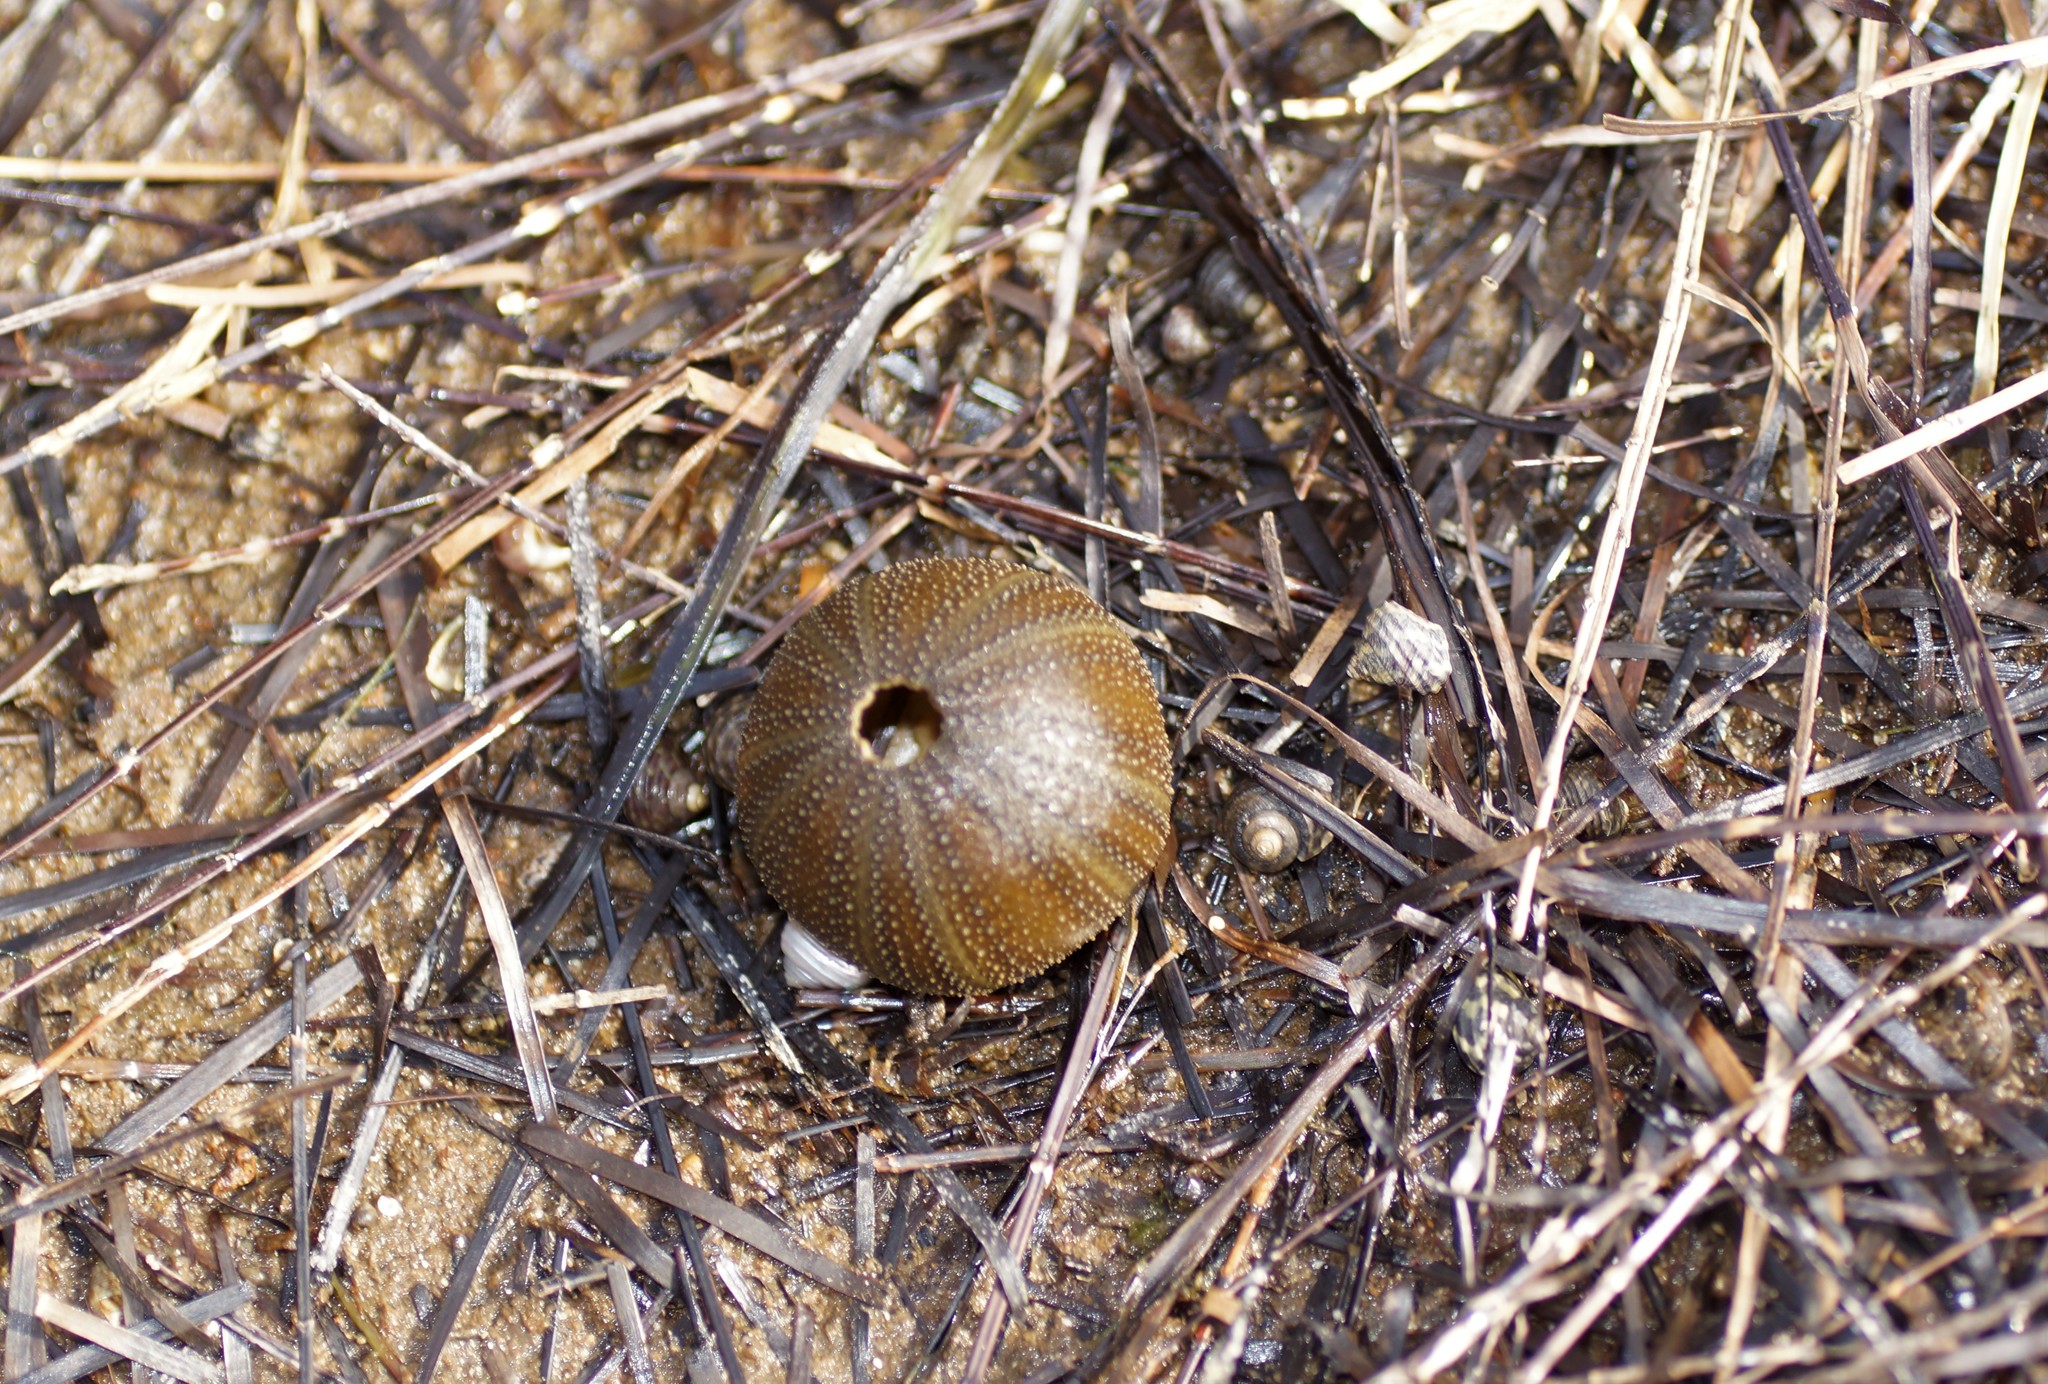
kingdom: Animalia
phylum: Echinodermata
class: Echinoidea
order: Camarodonta
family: Temnopleuridae
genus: Amblypneustes
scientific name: Amblypneustes ovum
